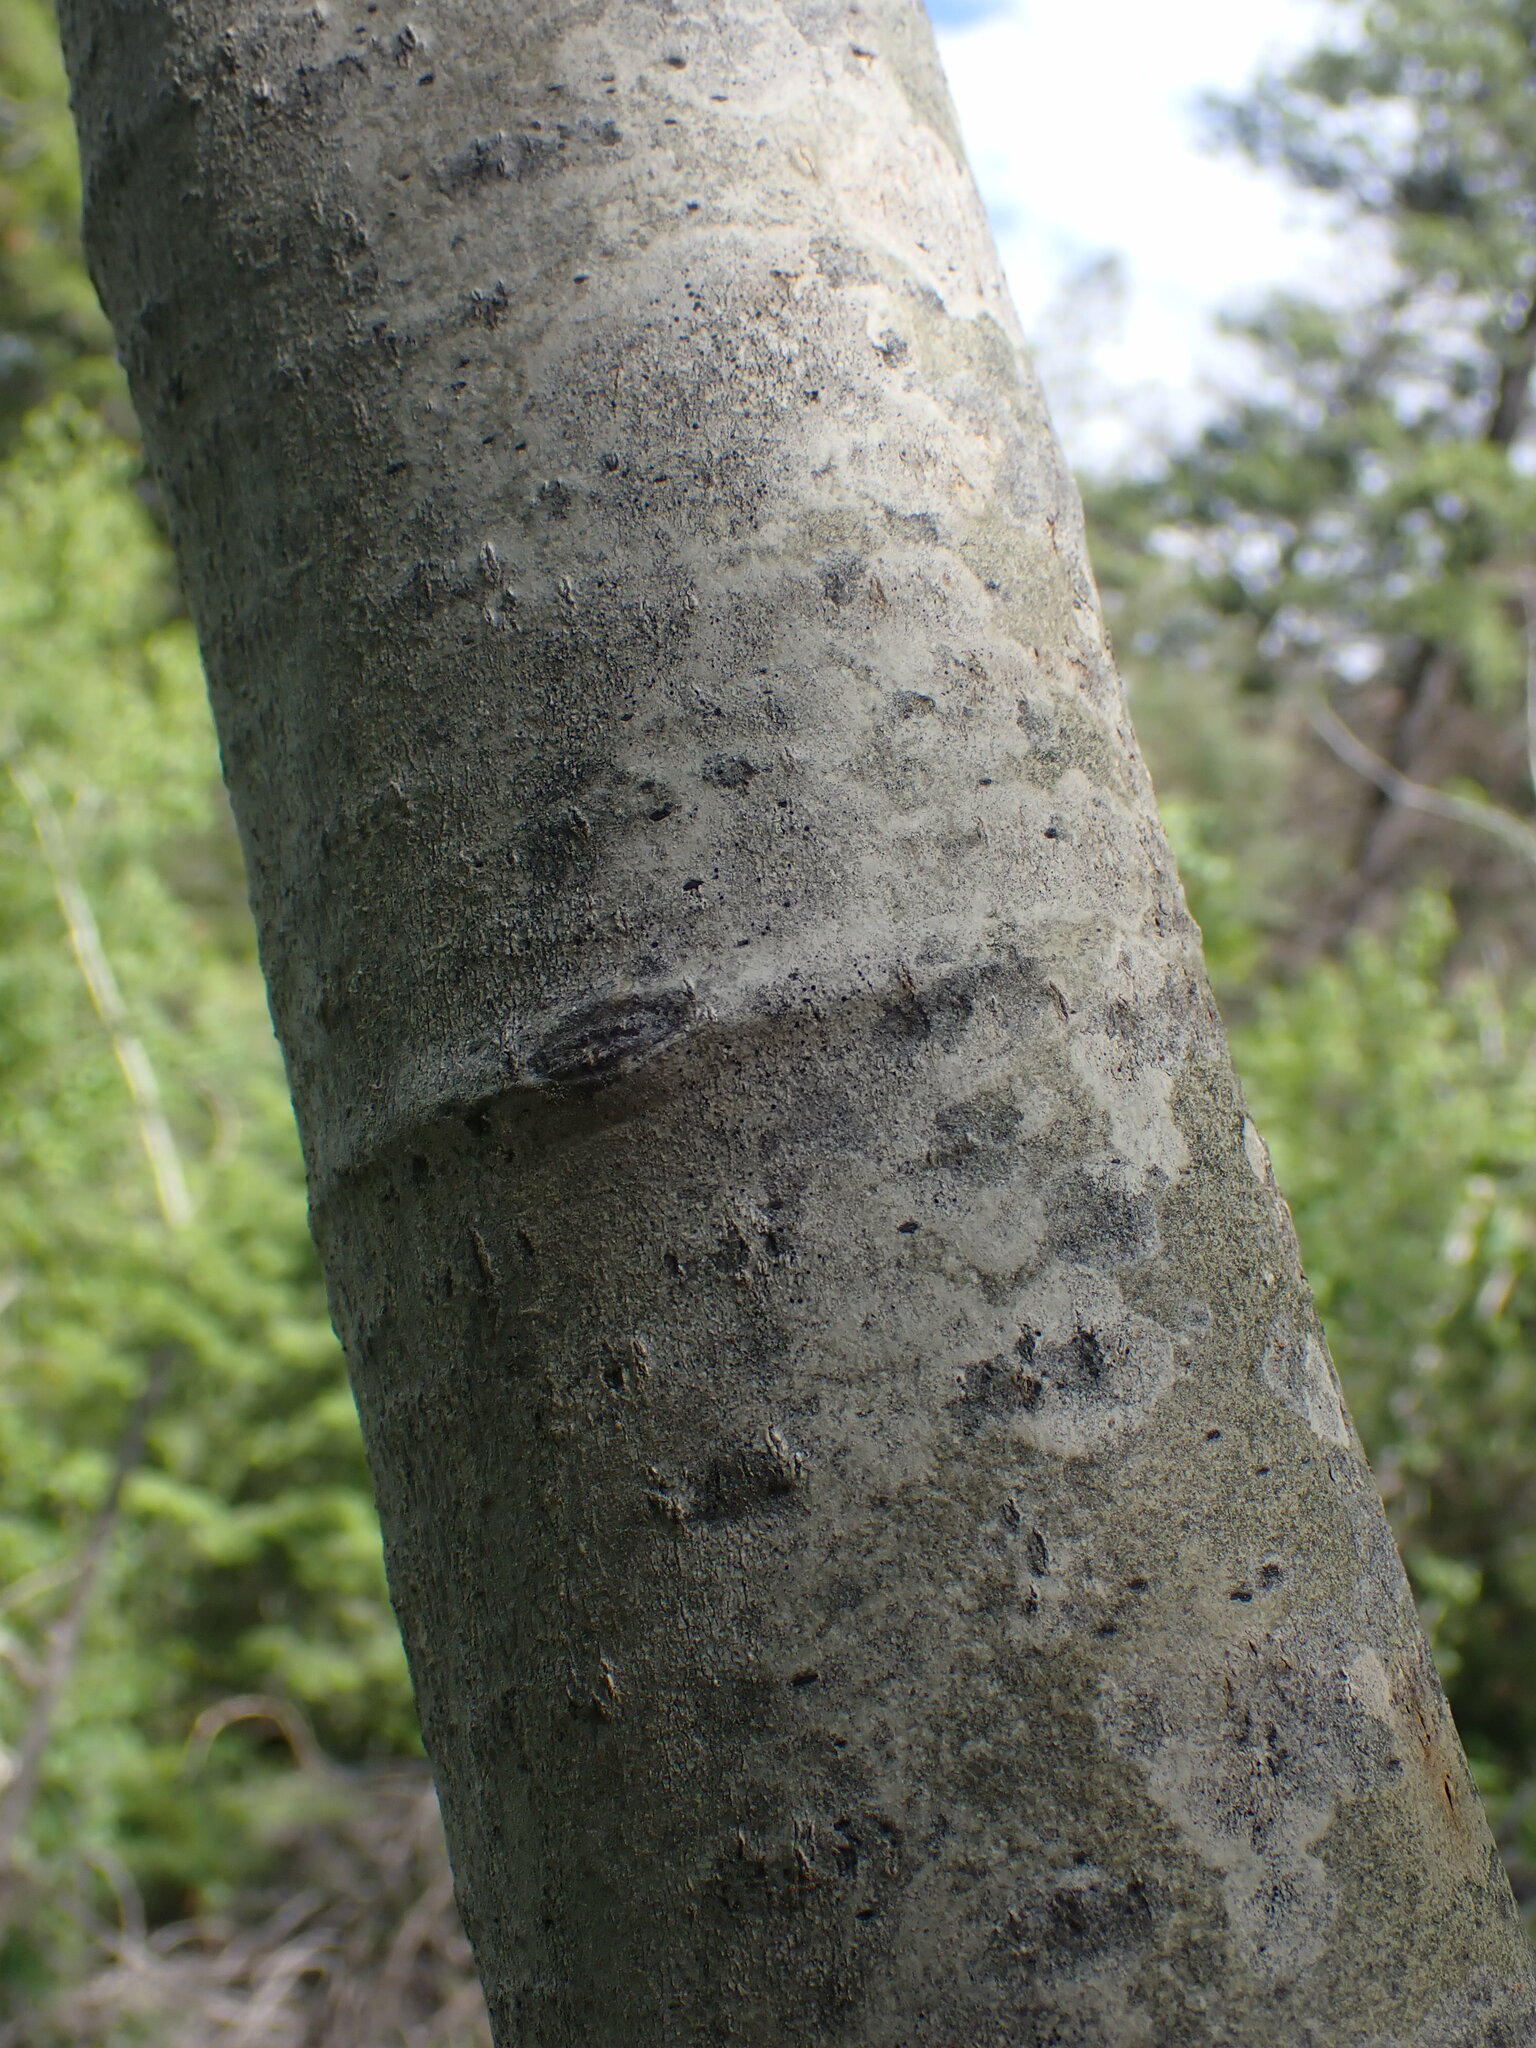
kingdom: Plantae
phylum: Tracheophyta
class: Magnoliopsida
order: Malpighiales
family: Salicaceae
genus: Populus
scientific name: Populus tremuloides
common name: Quaking aspen
